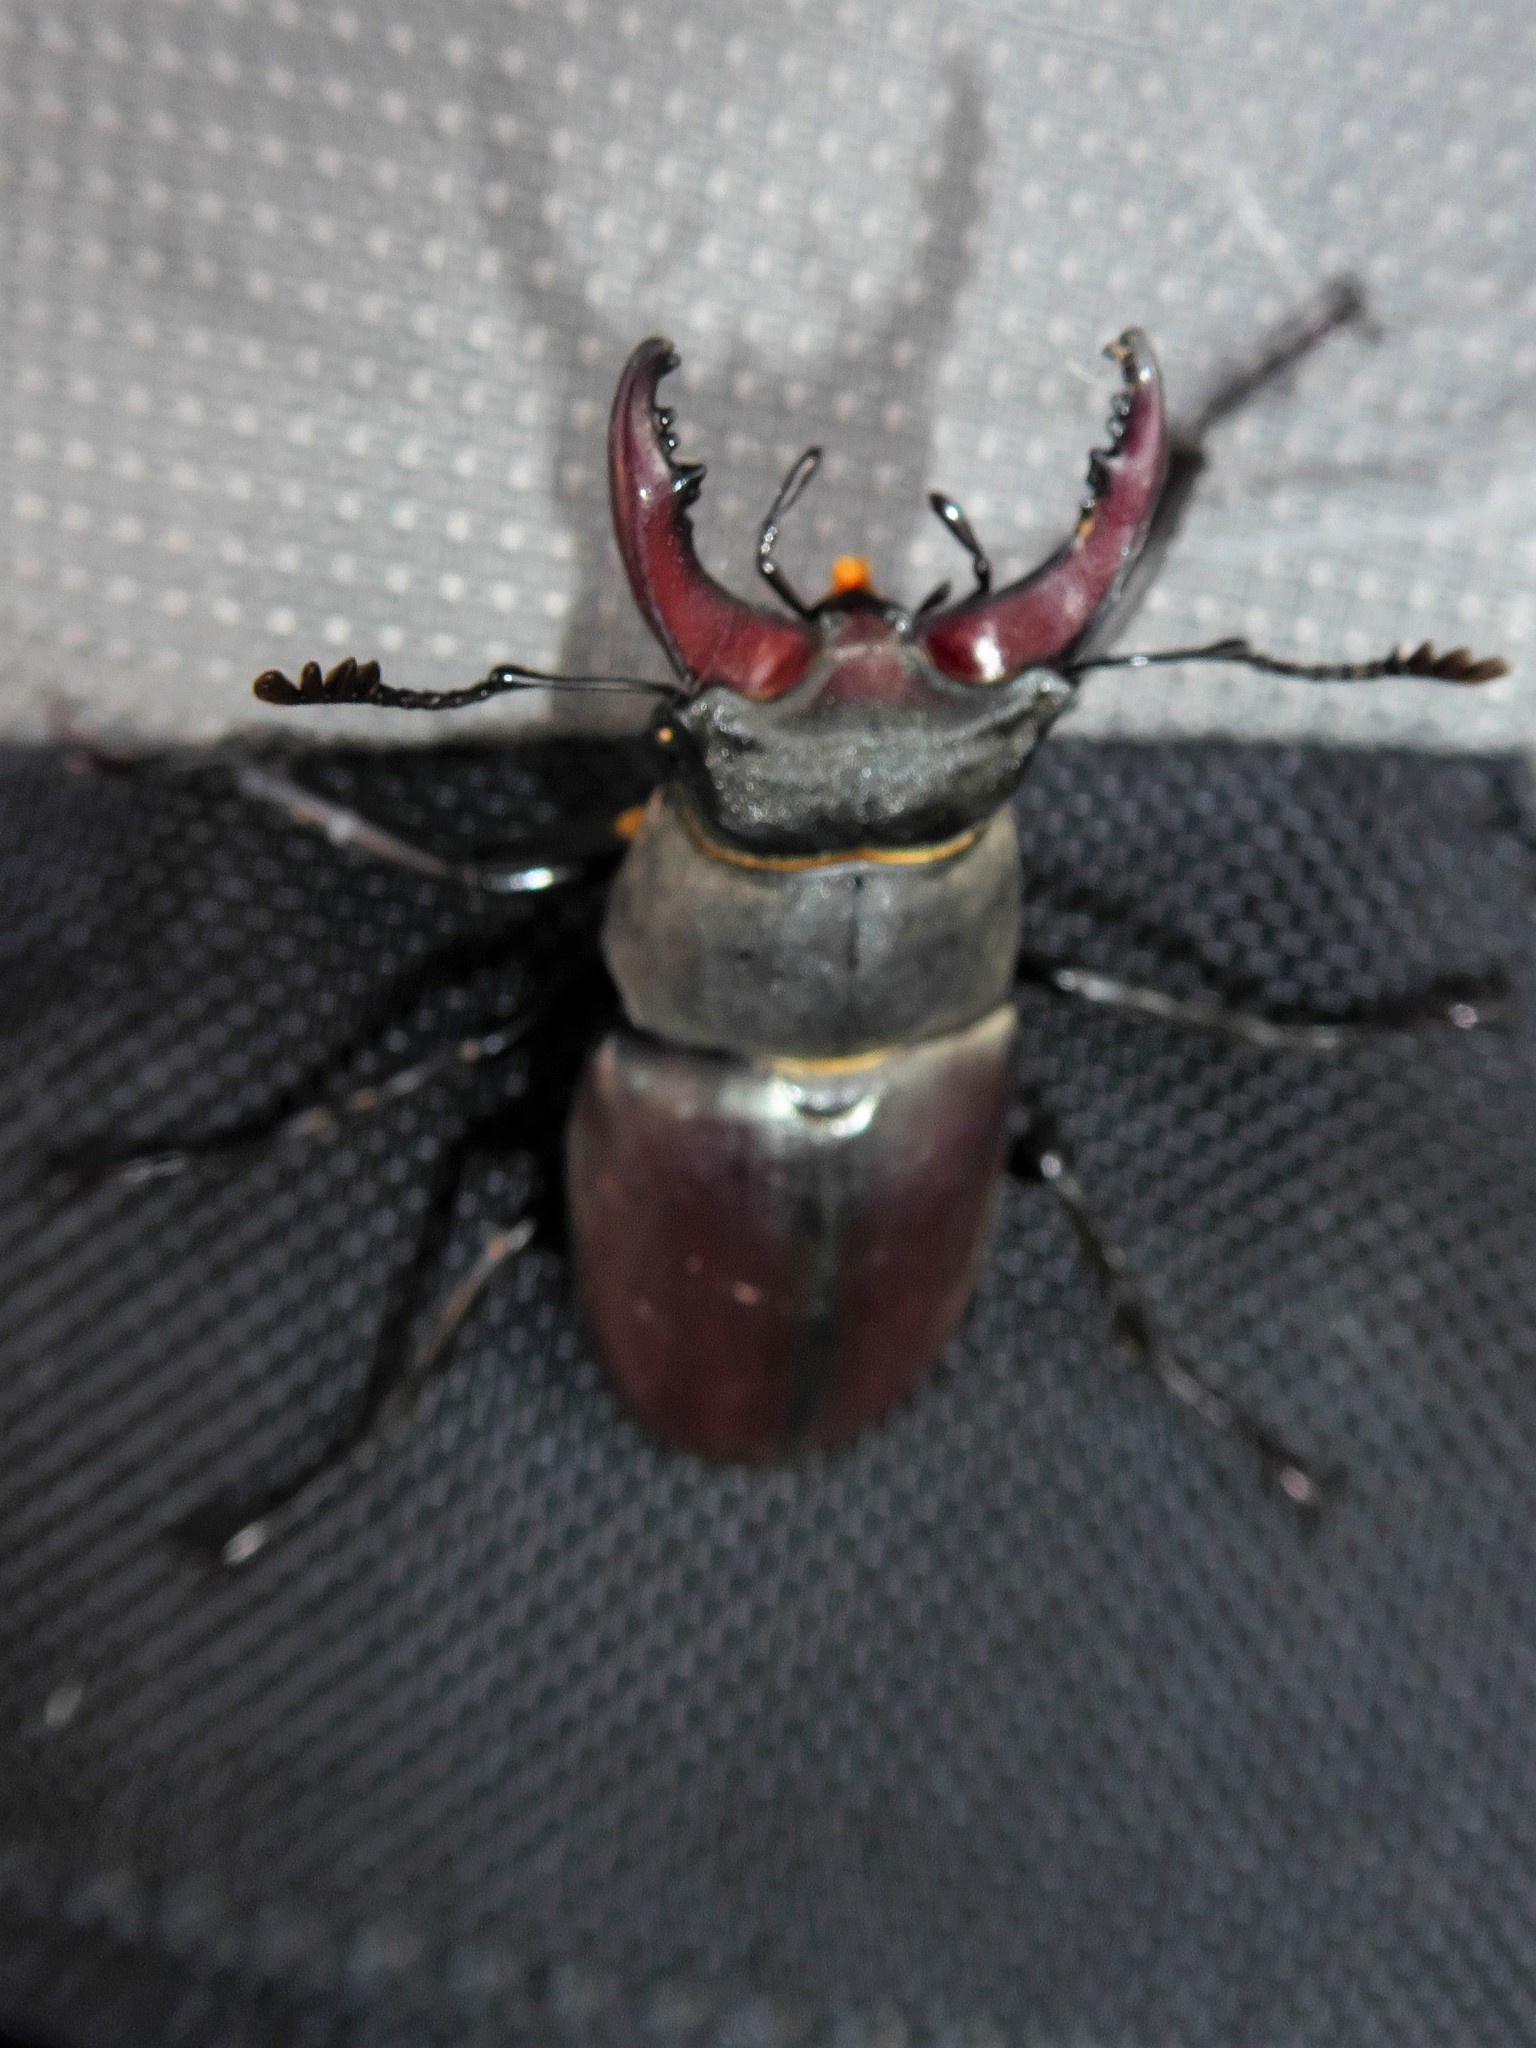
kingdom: Animalia
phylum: Arthropoda
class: Insecta
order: Coleoptera
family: Lucanidae
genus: Lucanus
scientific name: Lucanus cervus
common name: Stag beetle
